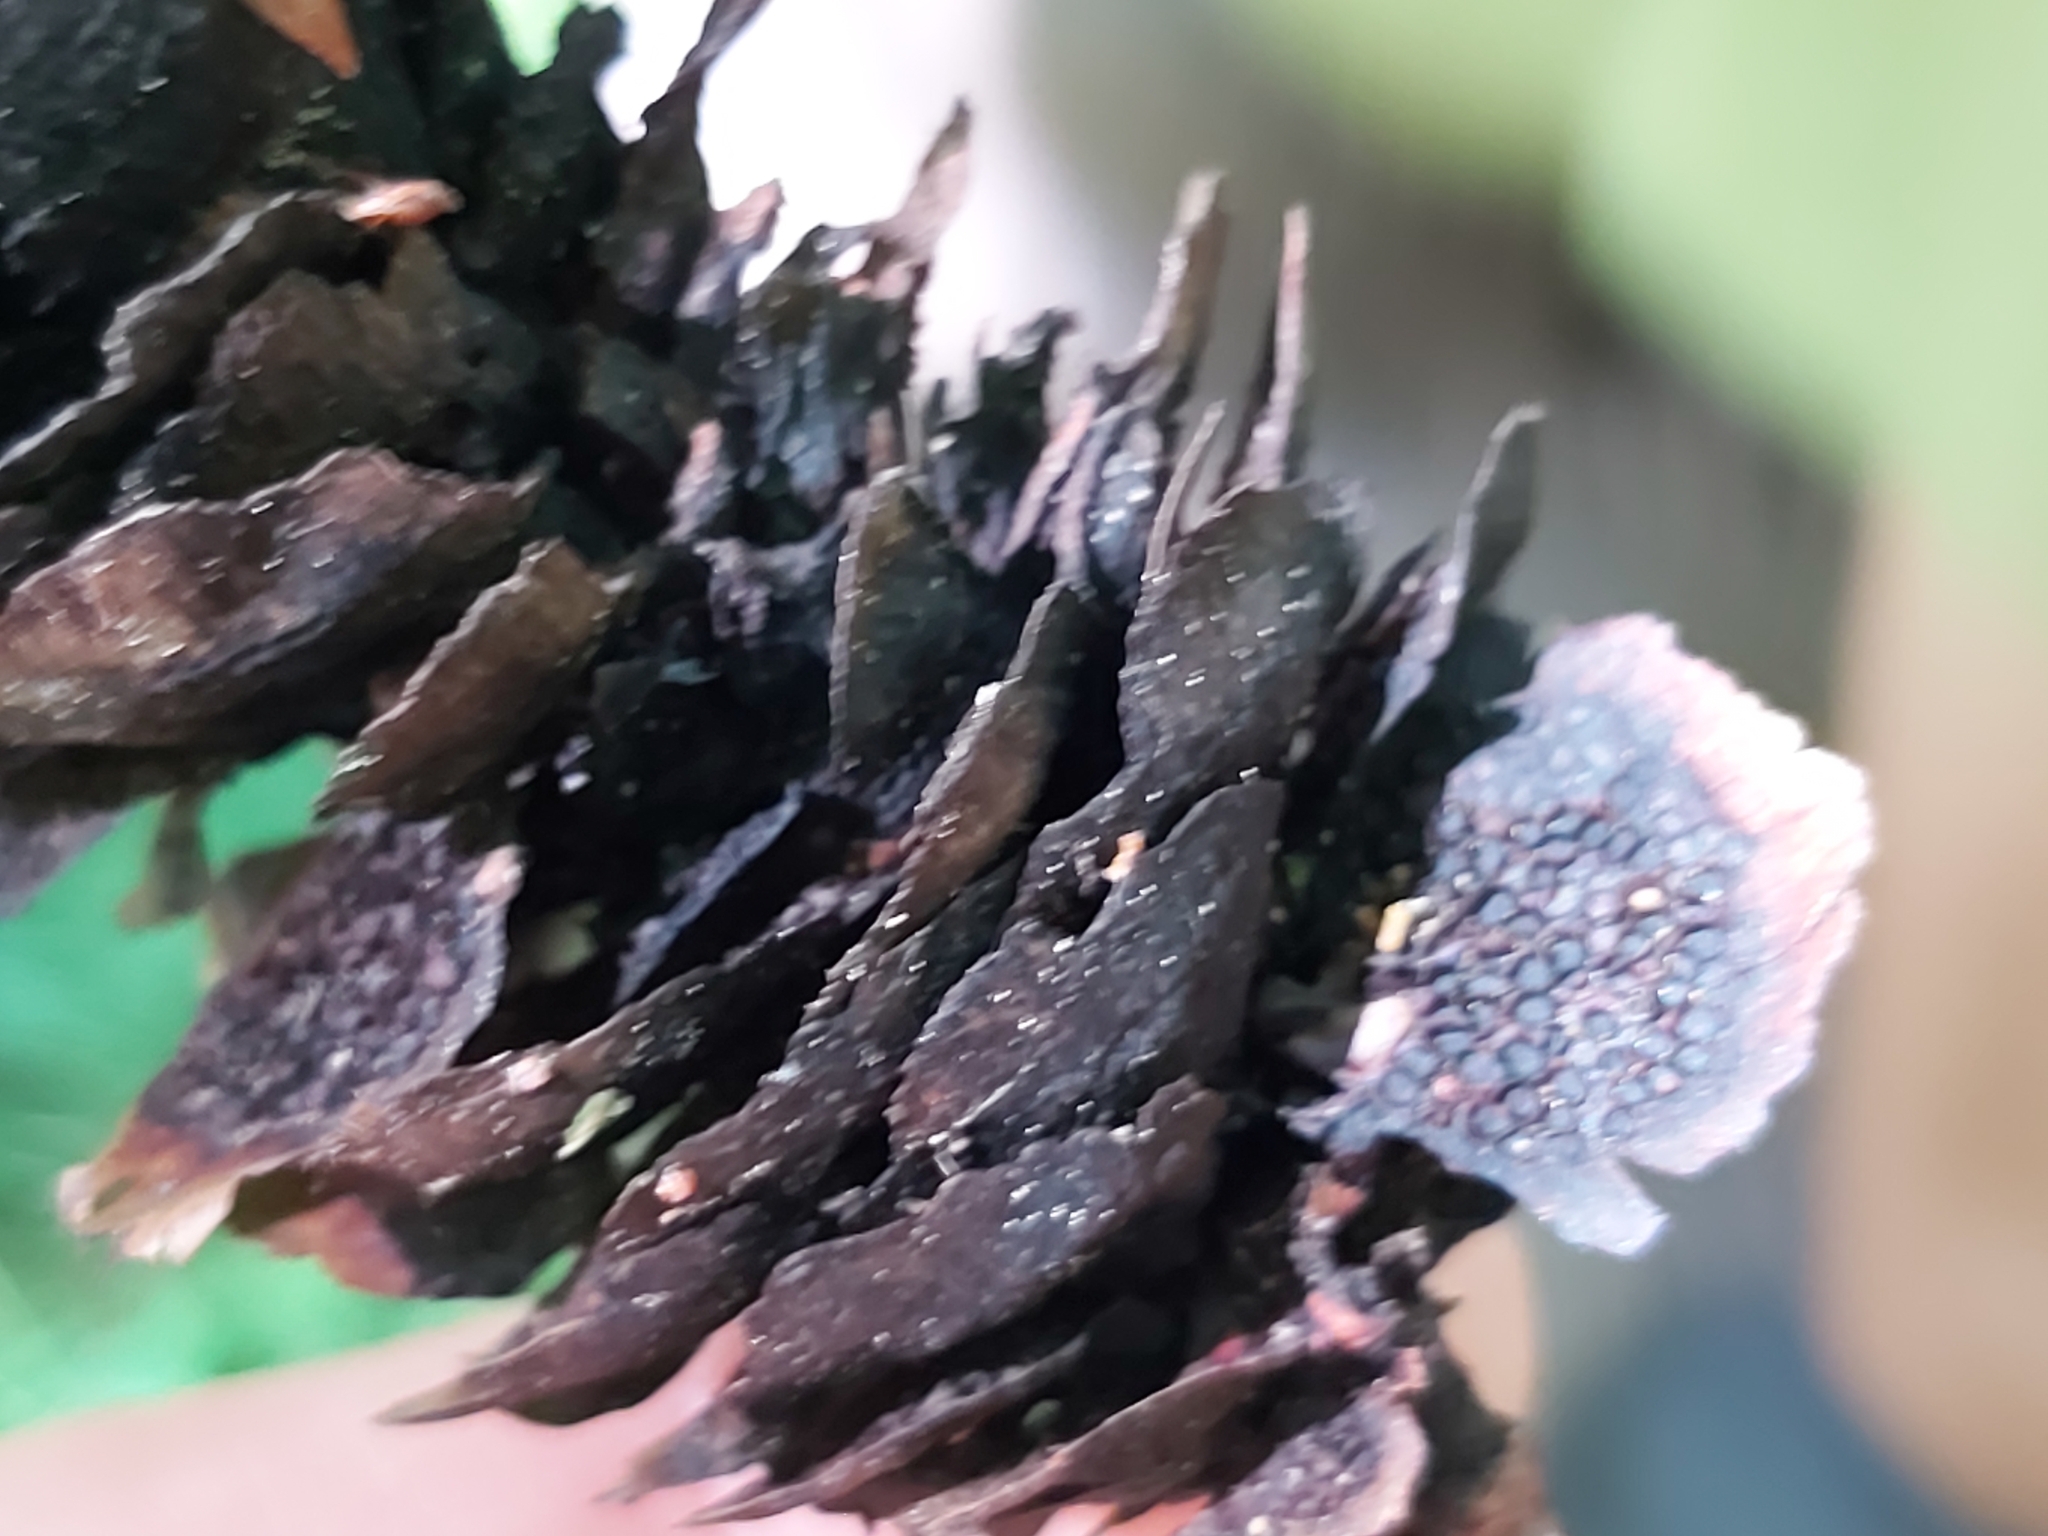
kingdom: Fungi
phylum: Basidiomycota
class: Pucciniomycetes
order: Pucciniales
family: Pucciniastraceae
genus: Thekopsora
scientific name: Thekopsora areolata
